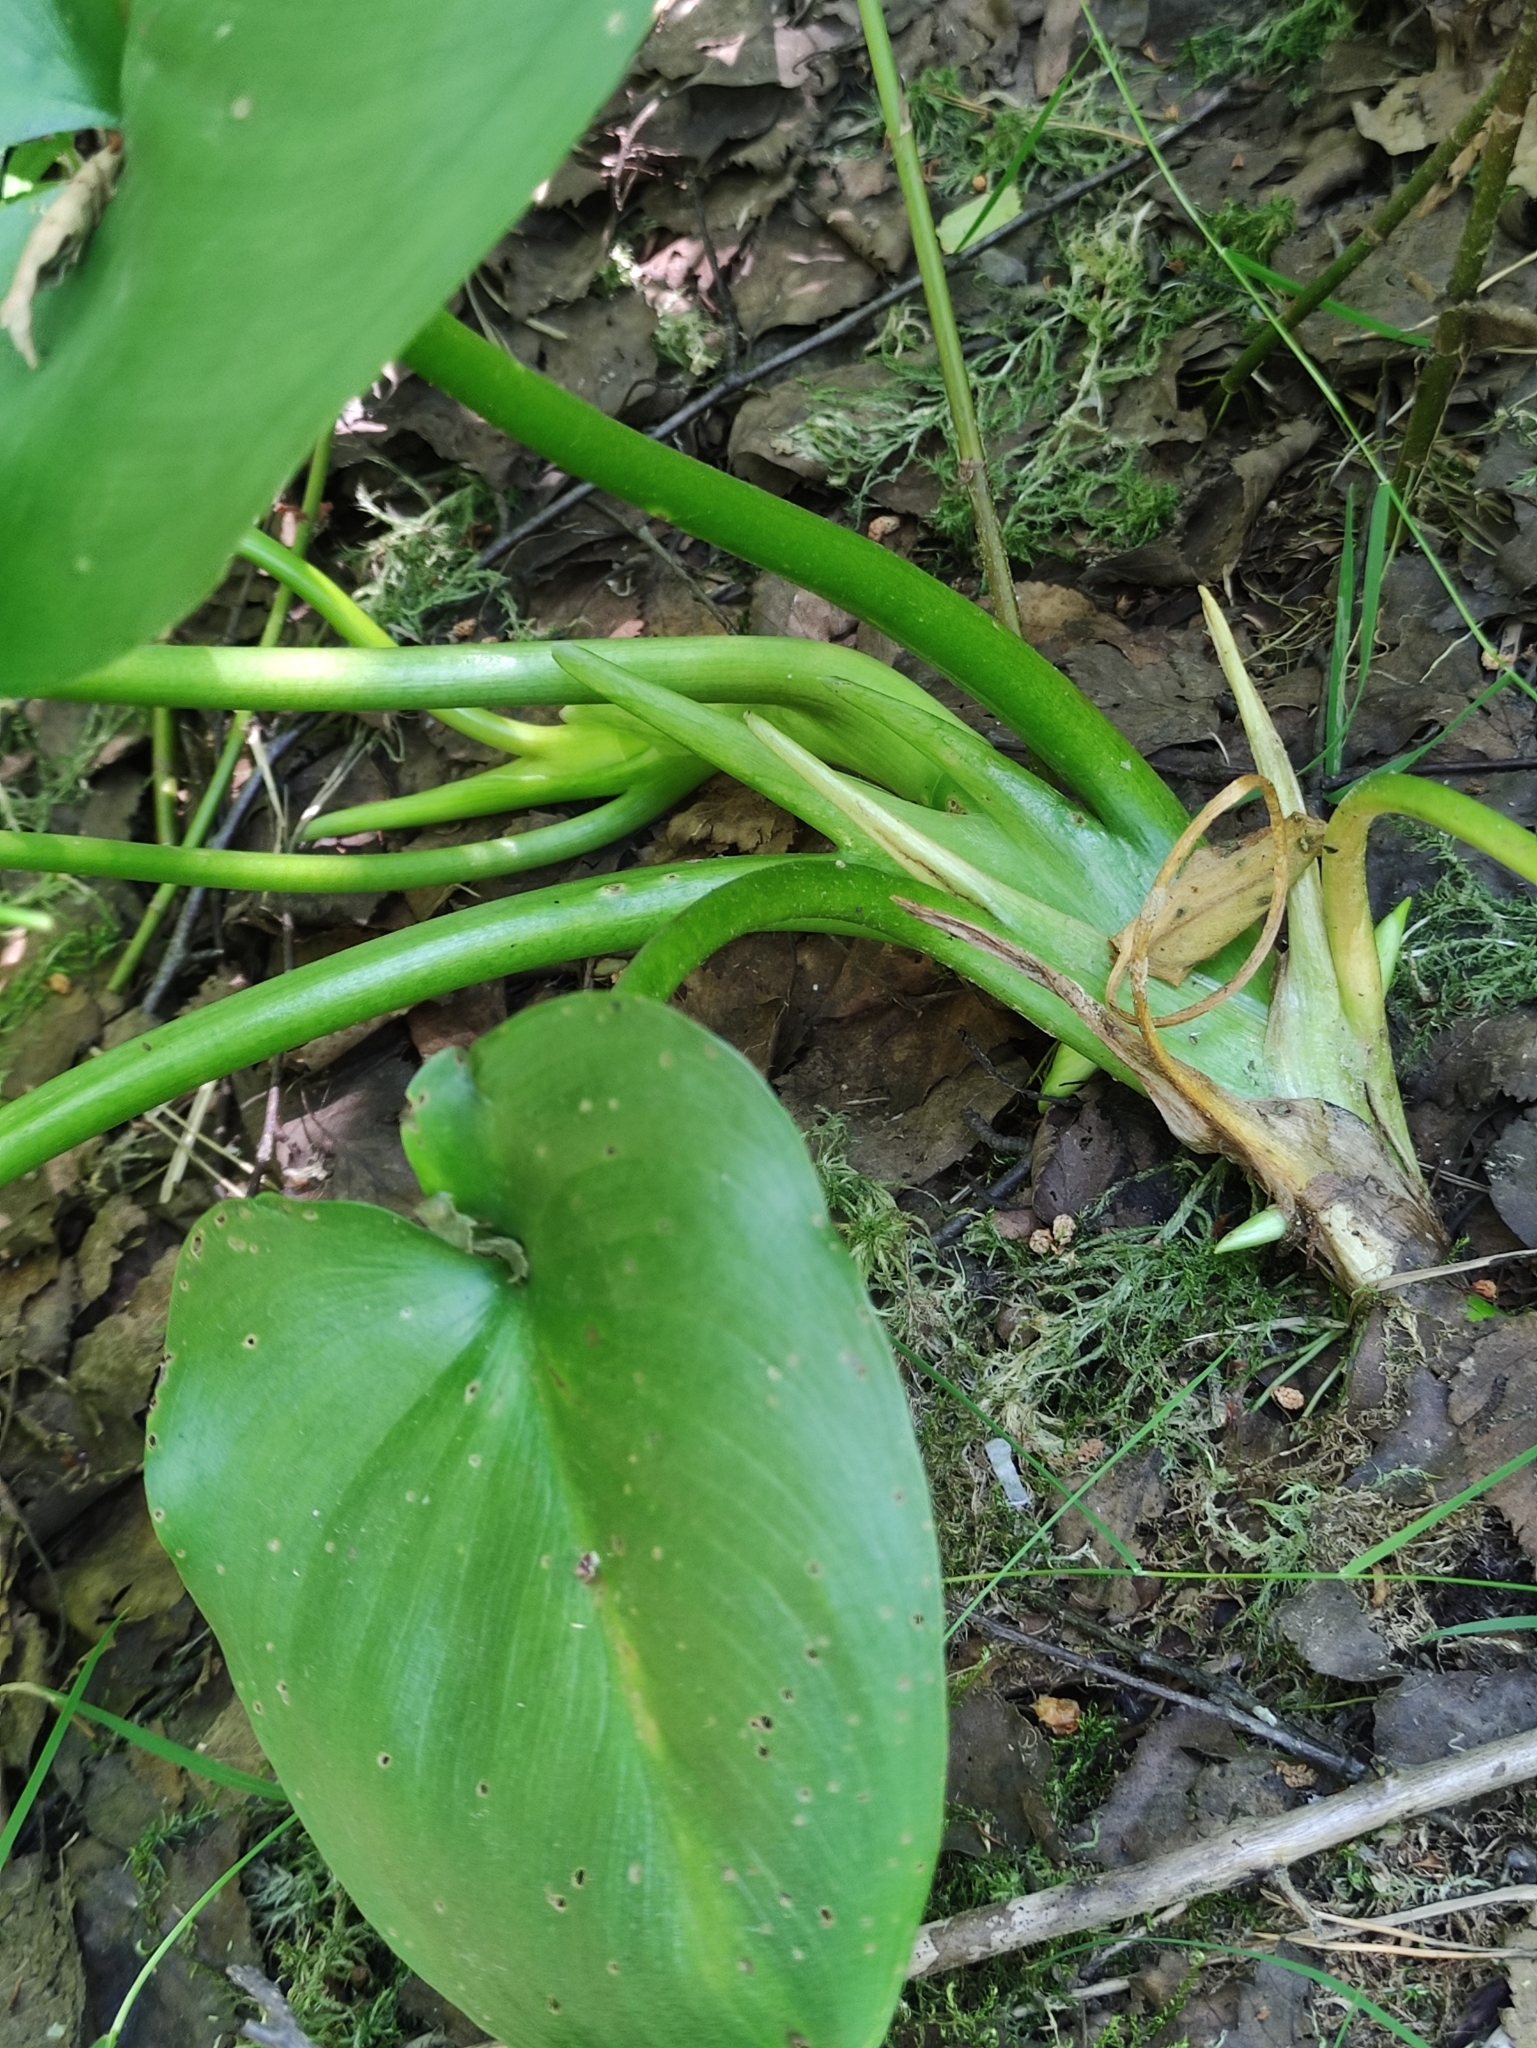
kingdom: Plantae
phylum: Tracheophyta
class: Liliopsida
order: Alismatales
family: Araceae
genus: Calla
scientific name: Calla palustris
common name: Bog arum
